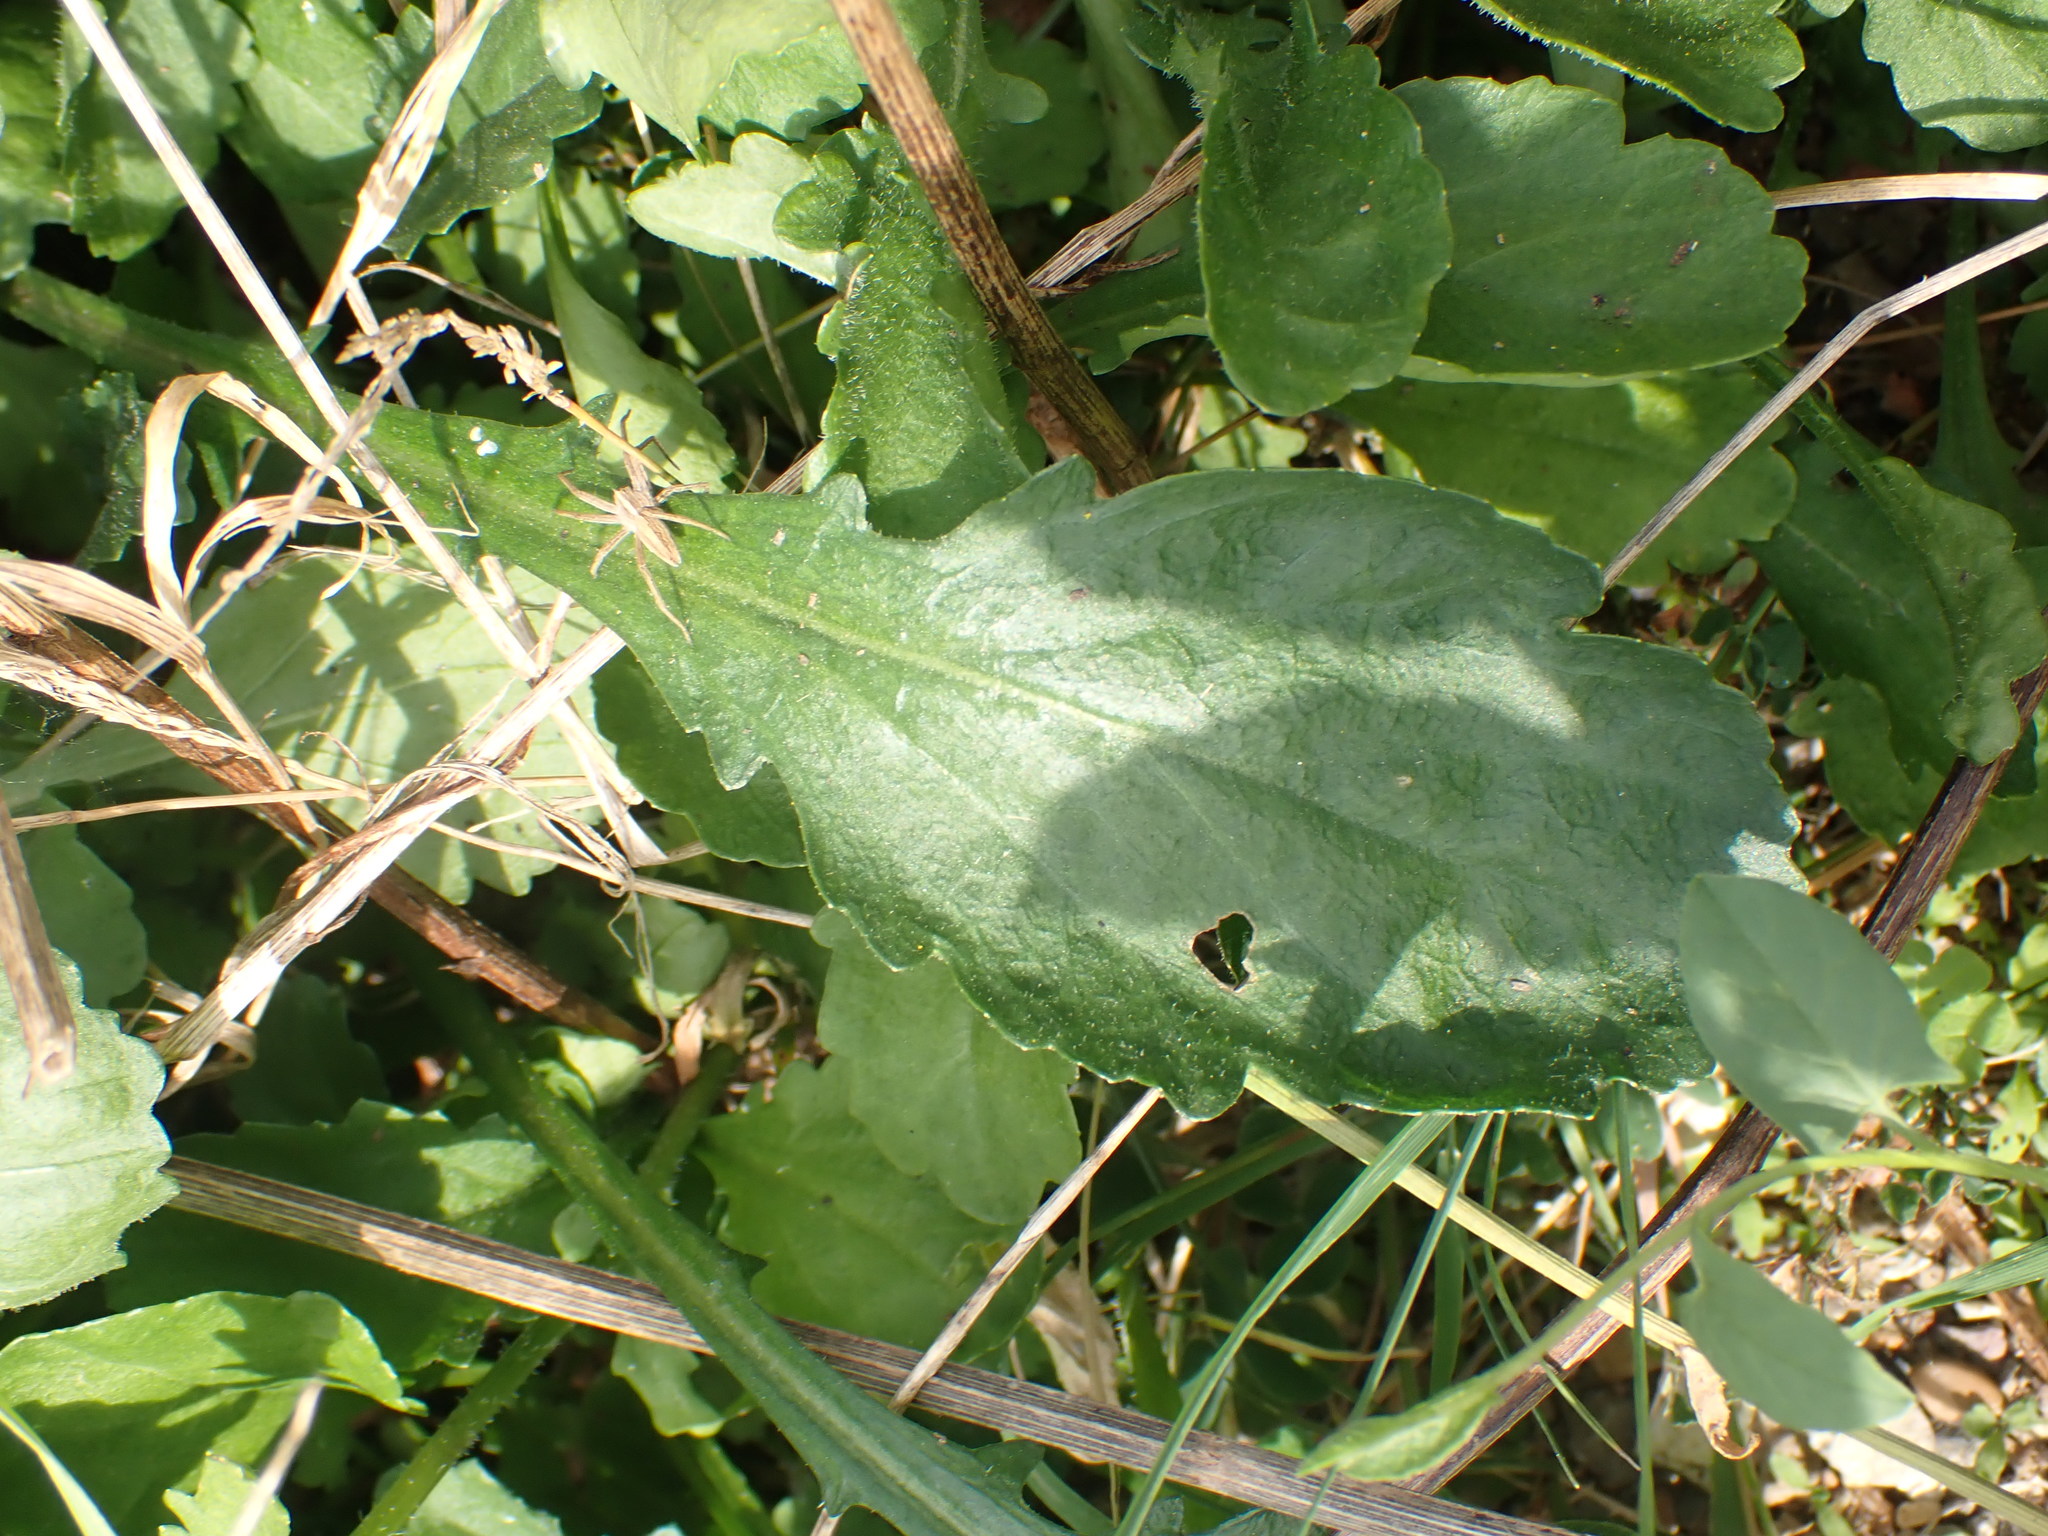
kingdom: Plantae
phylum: Tracheophyta
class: Magnoliopsida
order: Asterales
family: Asteraceae
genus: Leucanthemum
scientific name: Leucanthemum vulgare
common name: Oxeye daisy
